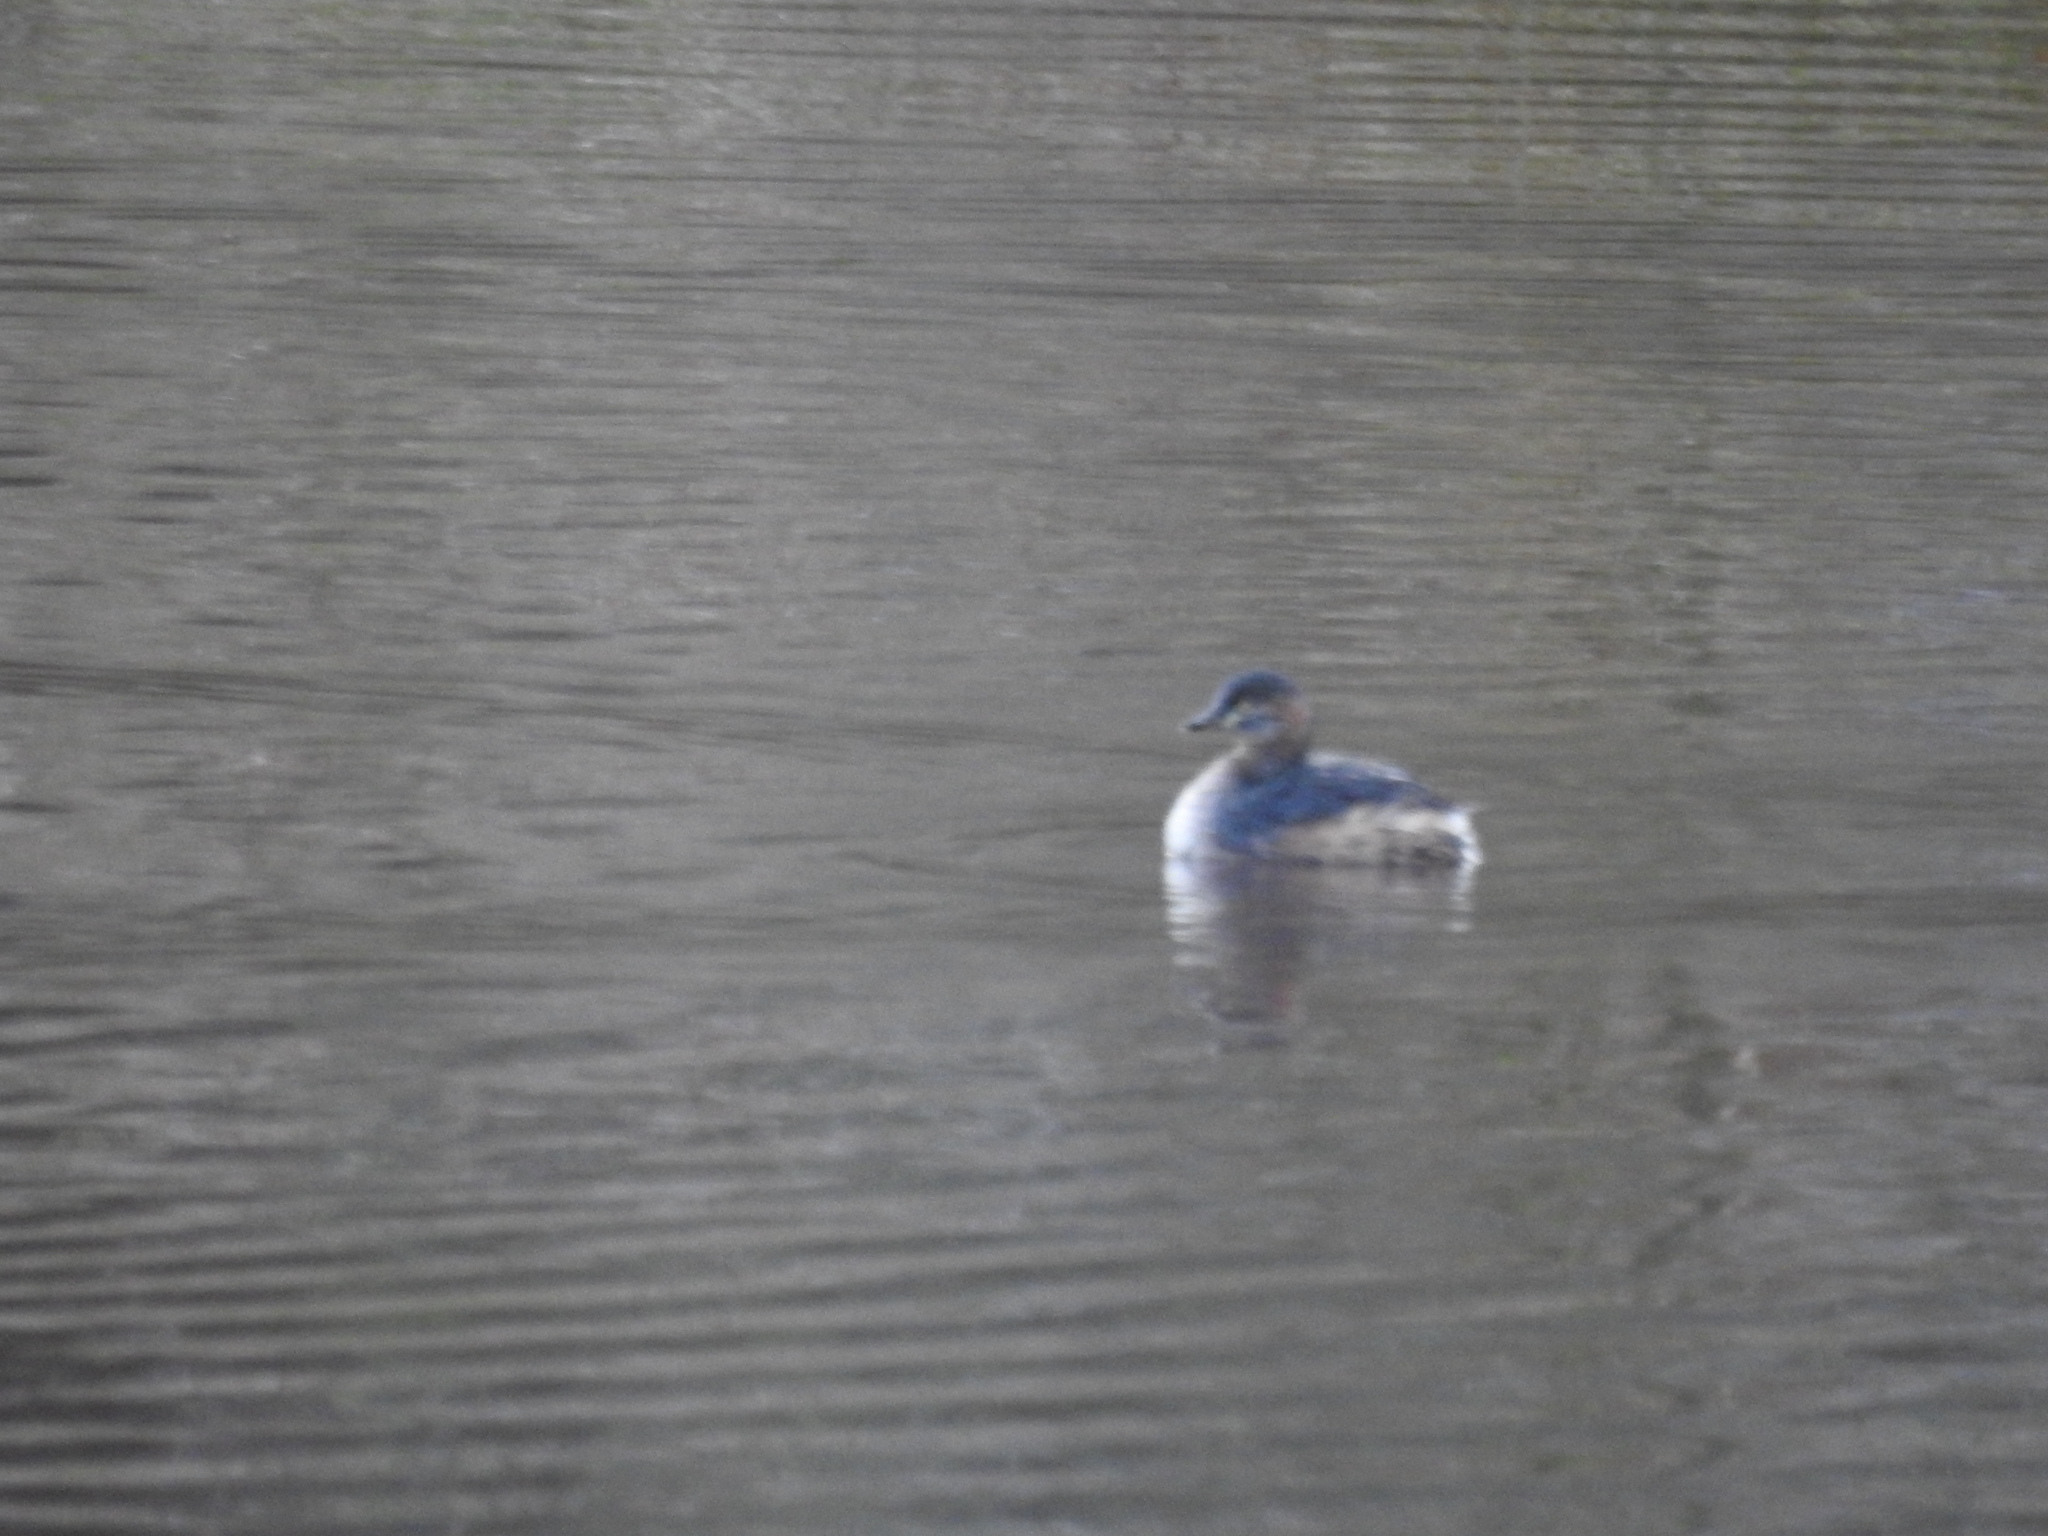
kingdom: Animalia
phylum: Chordata
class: Aves
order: Podicipediformes
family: Podicipedidae
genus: Tachybaptus
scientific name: Tachybaptus novaehollandiae
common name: Australasian grebe
